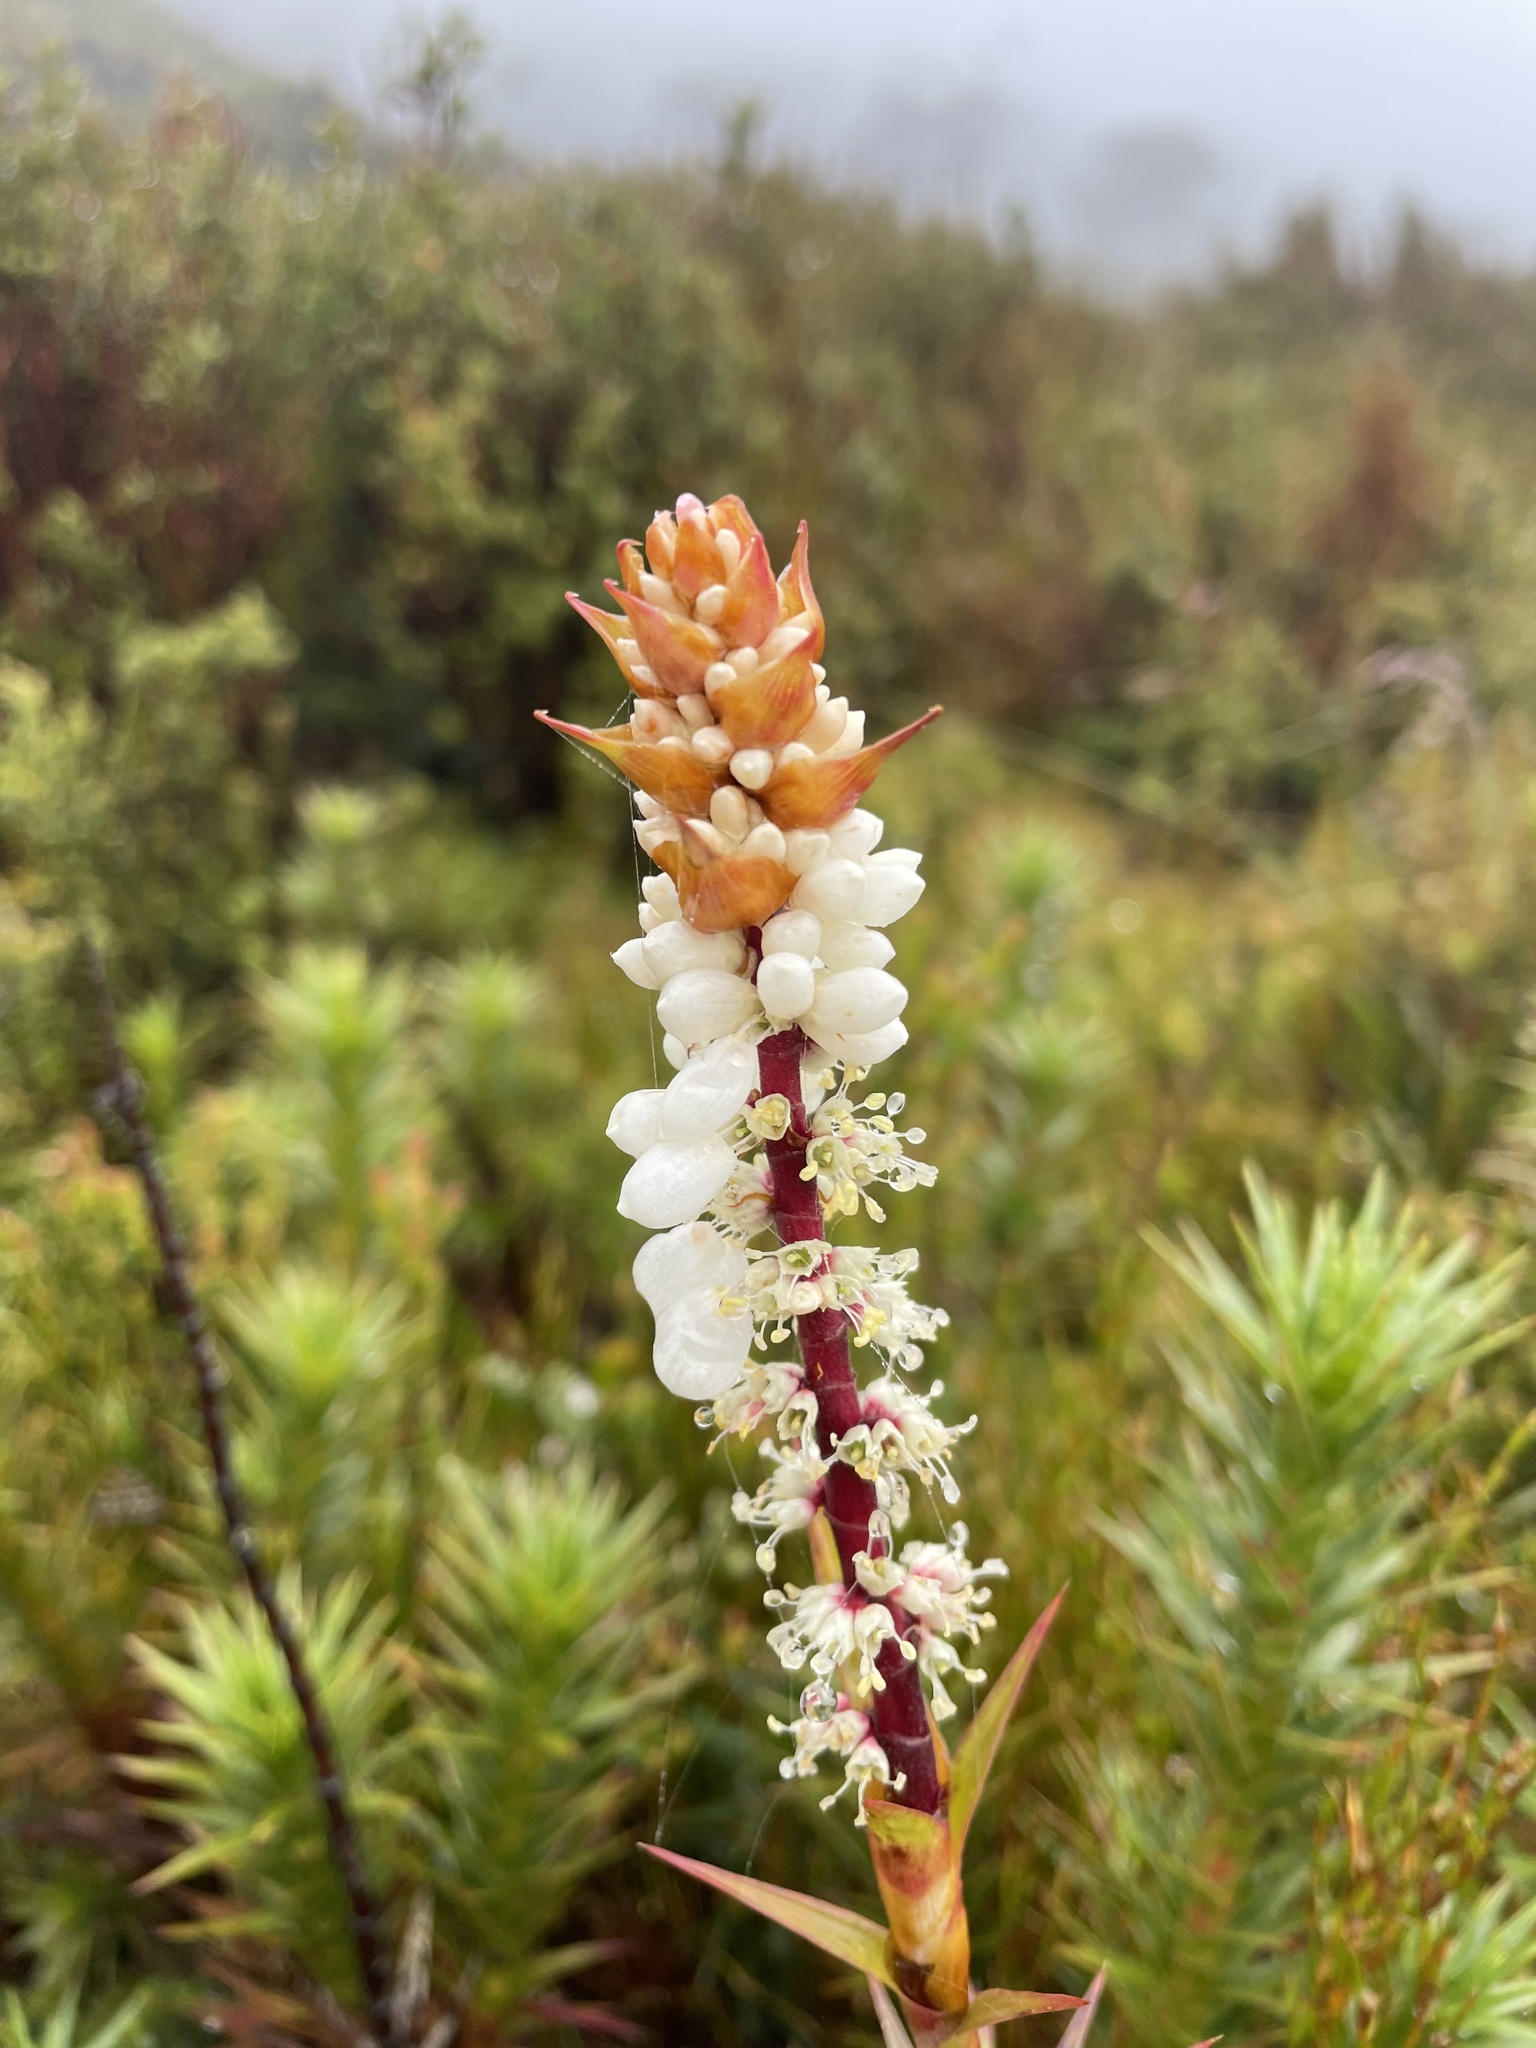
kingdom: Plantae
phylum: Tracheophyta
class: Magnoliopsida
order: Ericales
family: Ericaceae
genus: Dracophyllum
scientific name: Dracophyllum continentis
